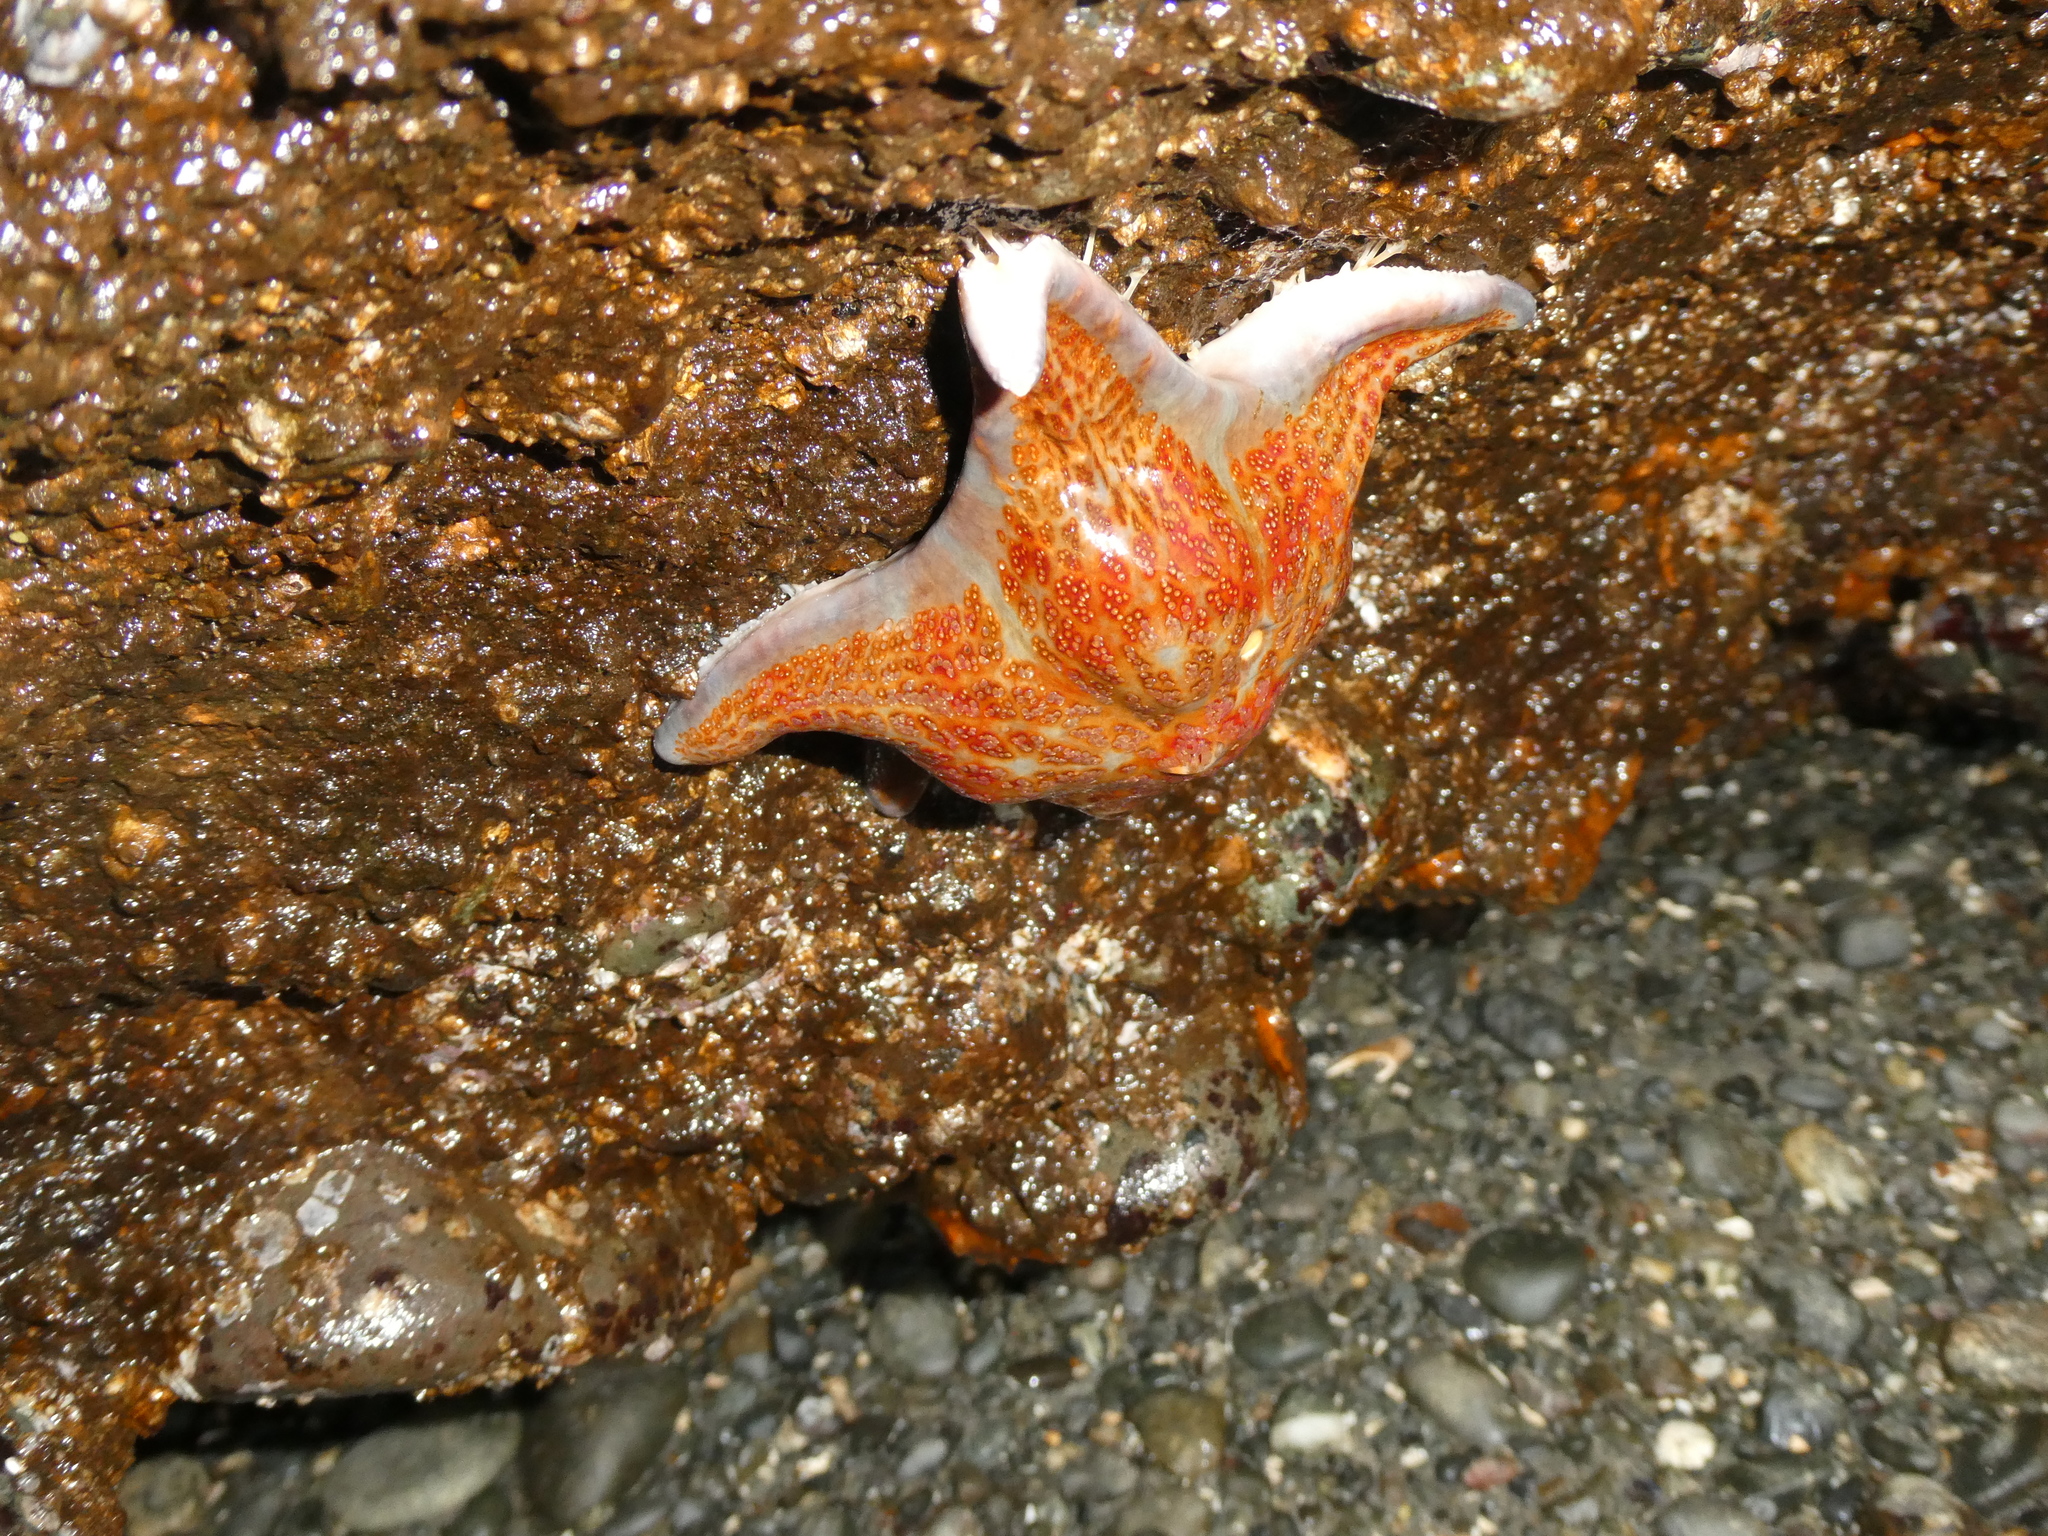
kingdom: Animalia
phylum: Echinodermata
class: Asteroidea
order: Valvatida
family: Asteropseidae
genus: Dermasterias
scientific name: Dermasterias imbricata
